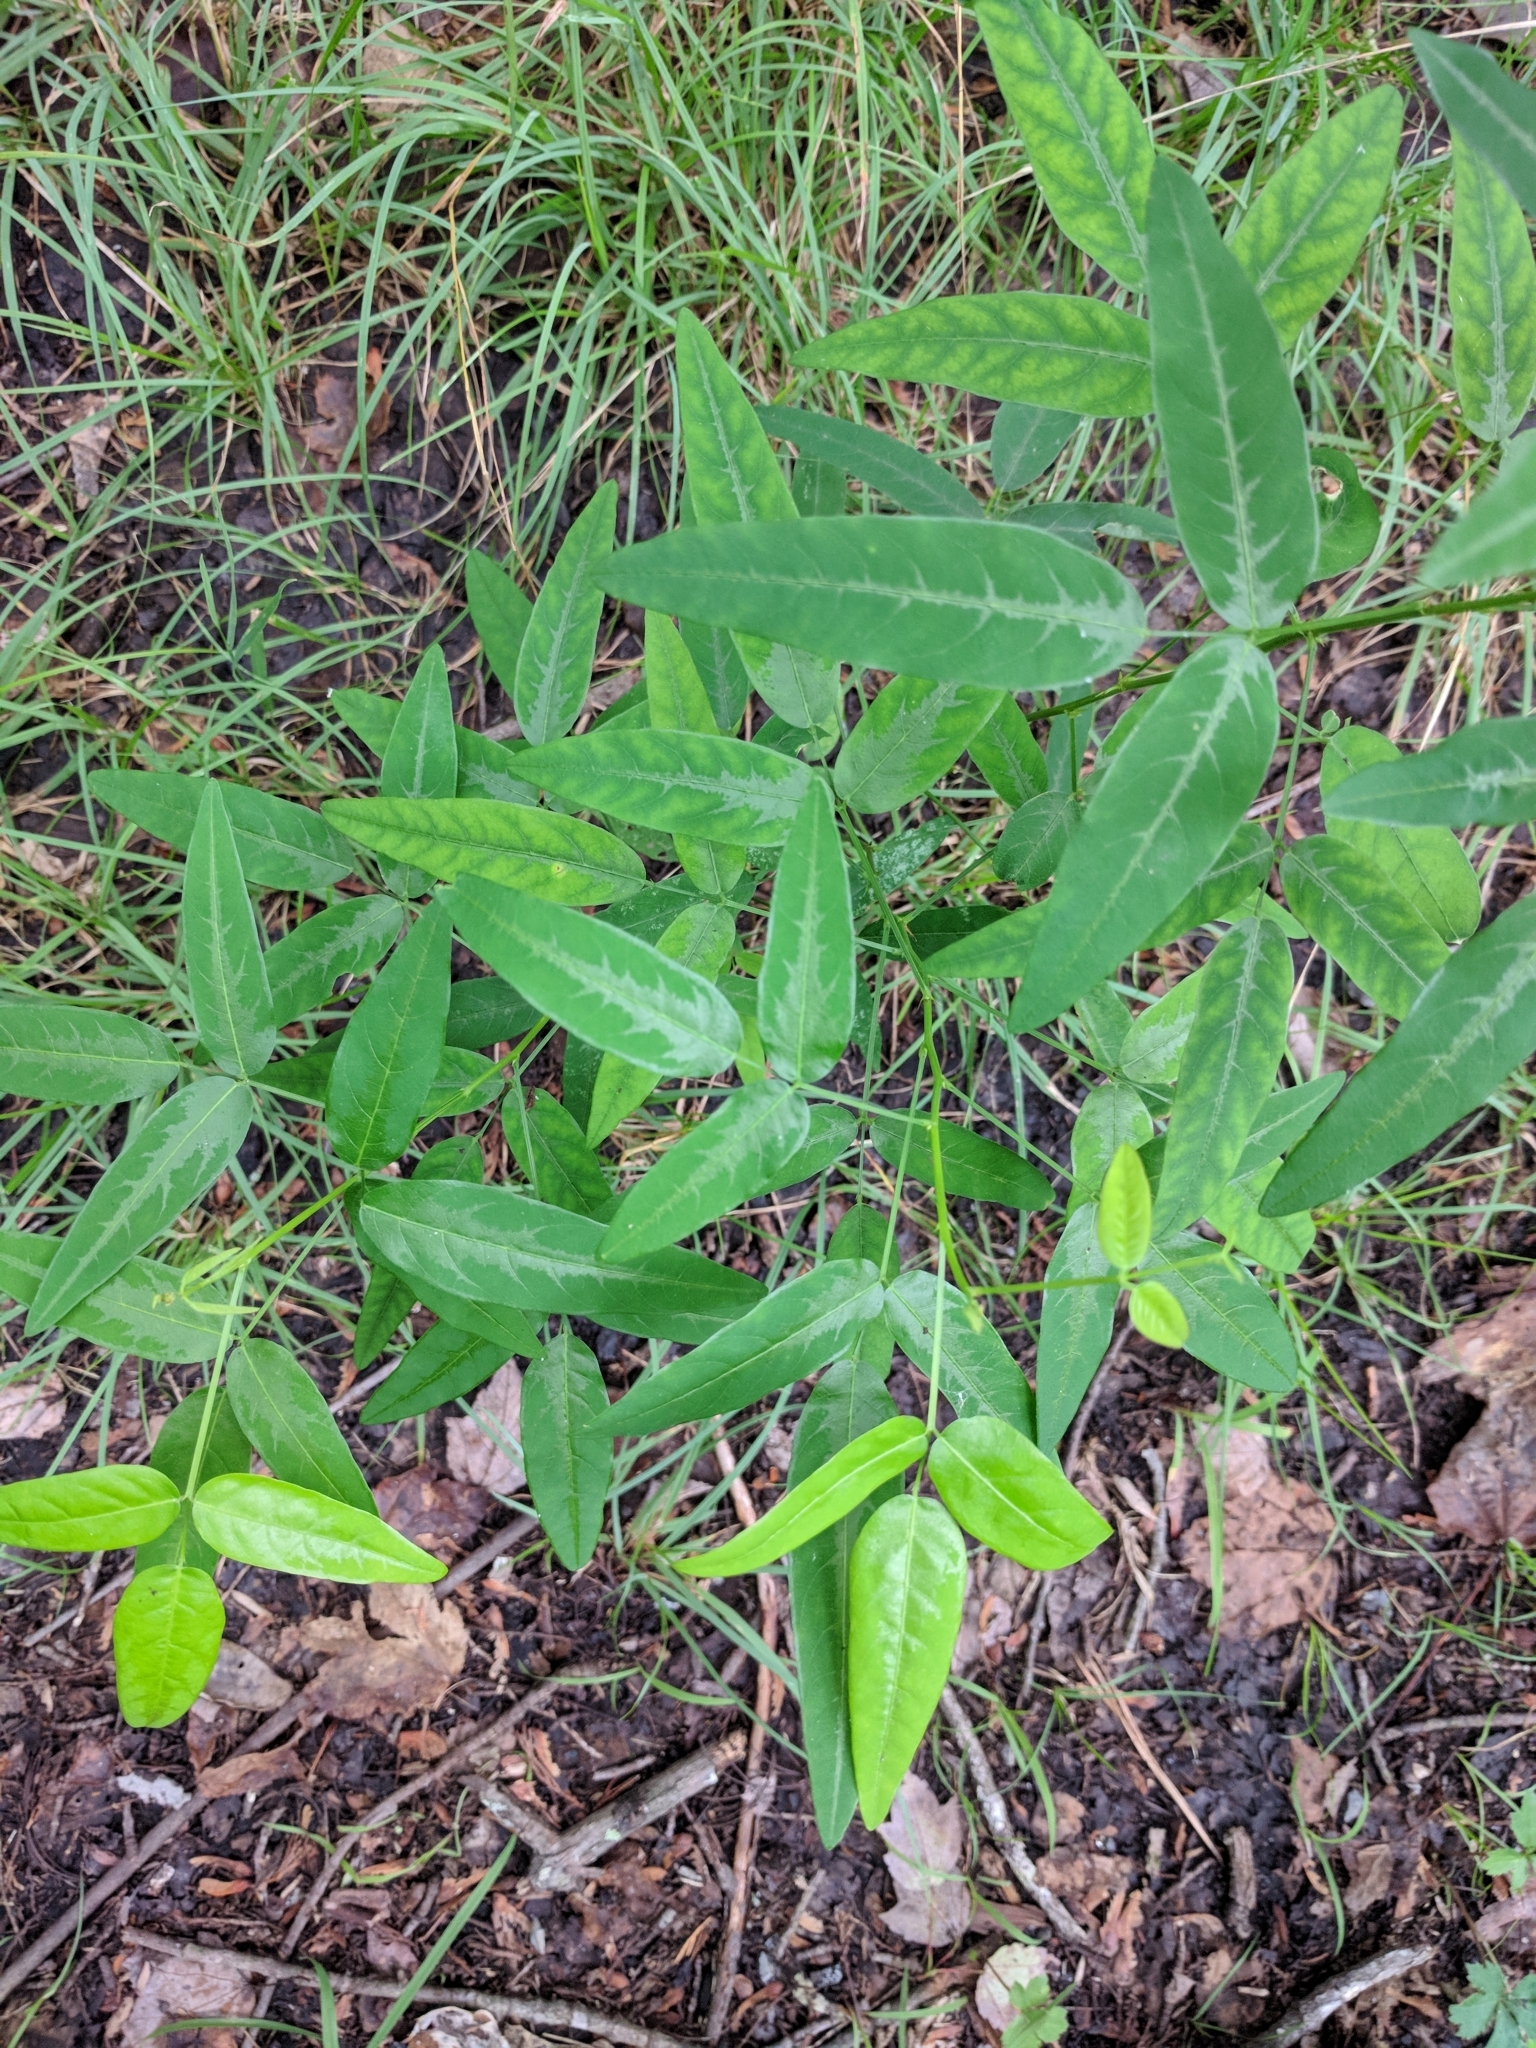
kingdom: Plantae
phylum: Tracheophyta
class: Magnoliopsida
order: Fabales
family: Fabaceae
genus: Desmodium
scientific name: Desmodium paniculatum
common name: Panicled tick-clover
